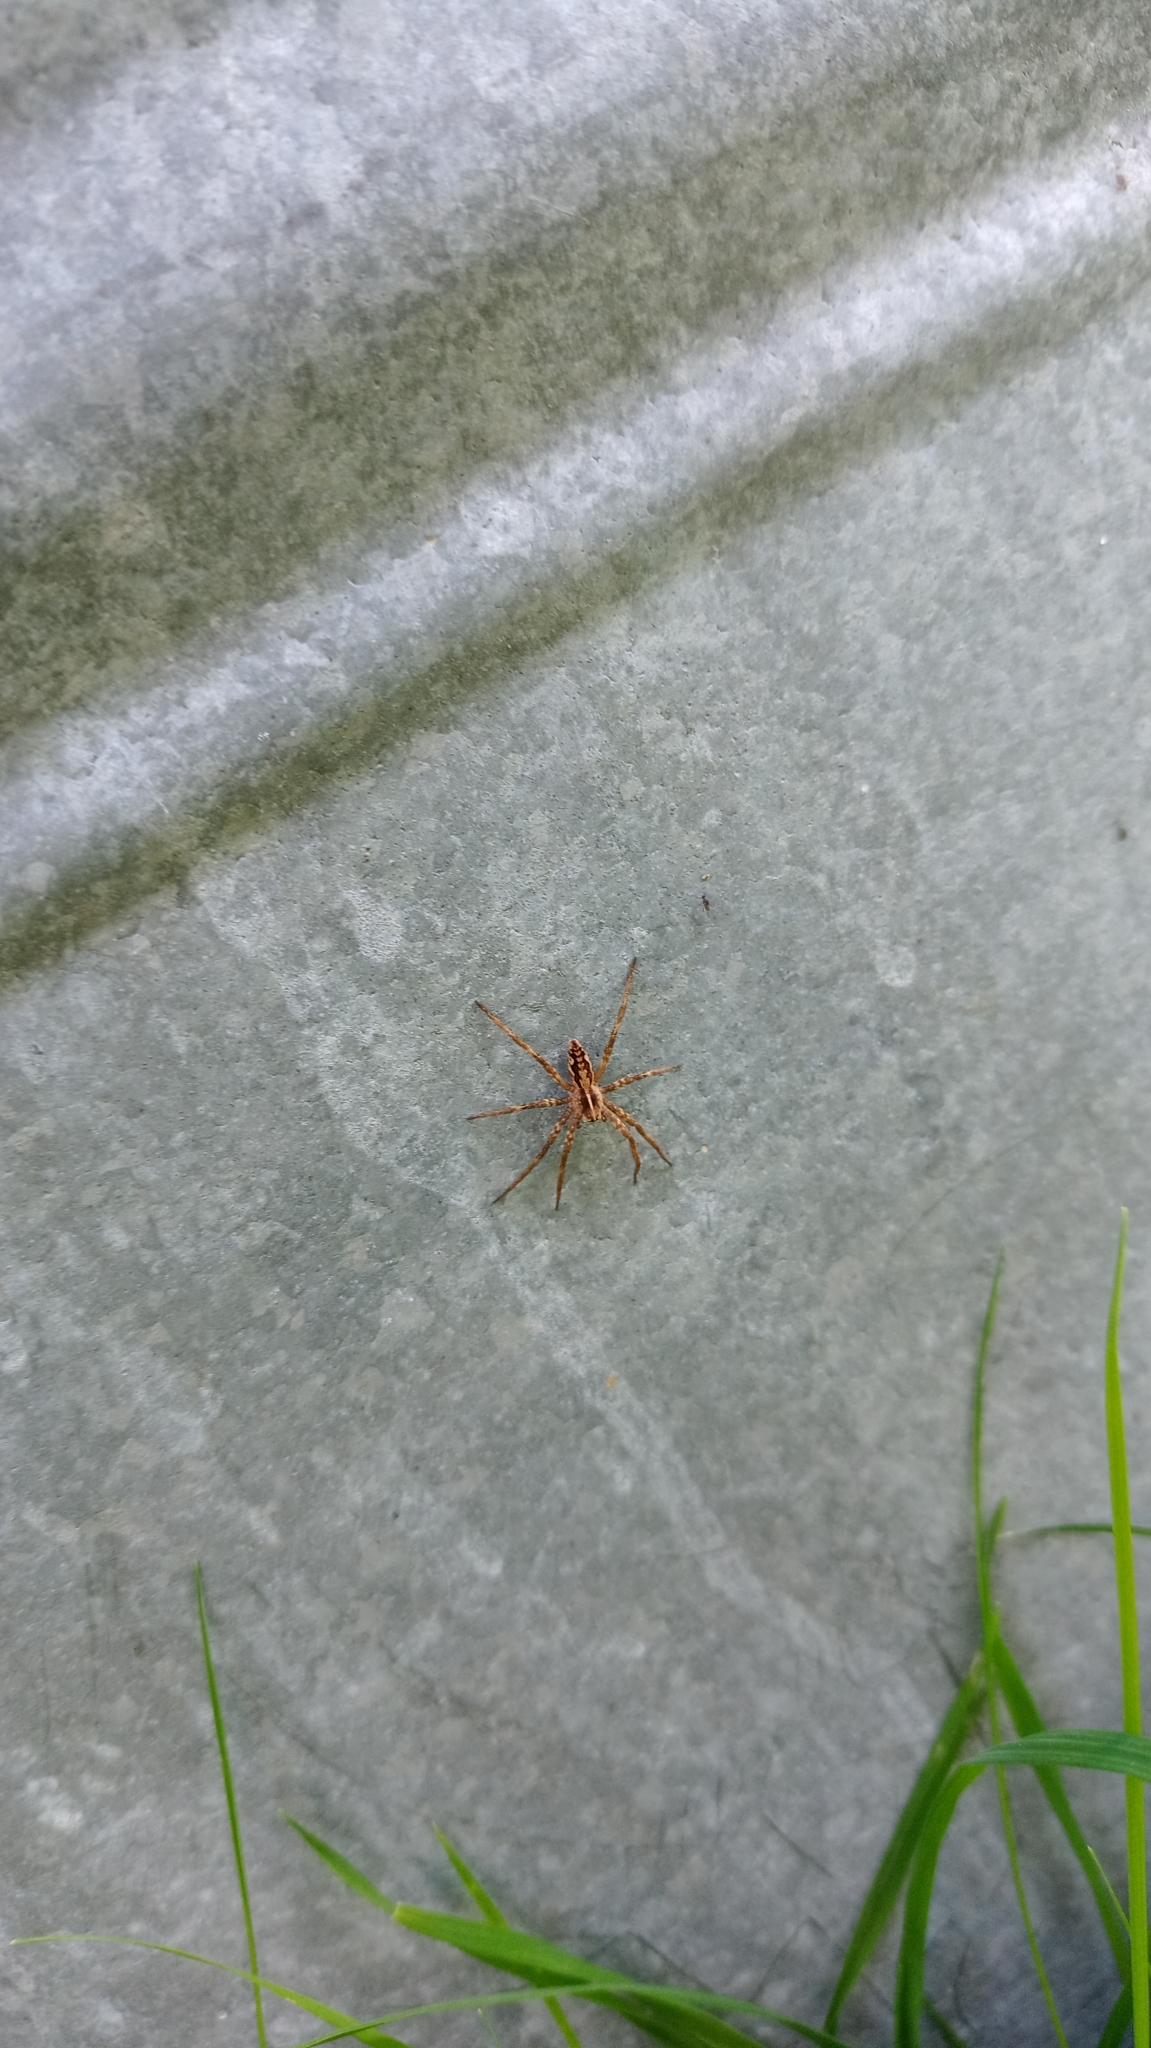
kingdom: Animalia
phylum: Arthropoda
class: Arachnida
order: Araneae
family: Pisauridae
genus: Pisaura
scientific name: Pisaura mirabilis
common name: Tent spider
